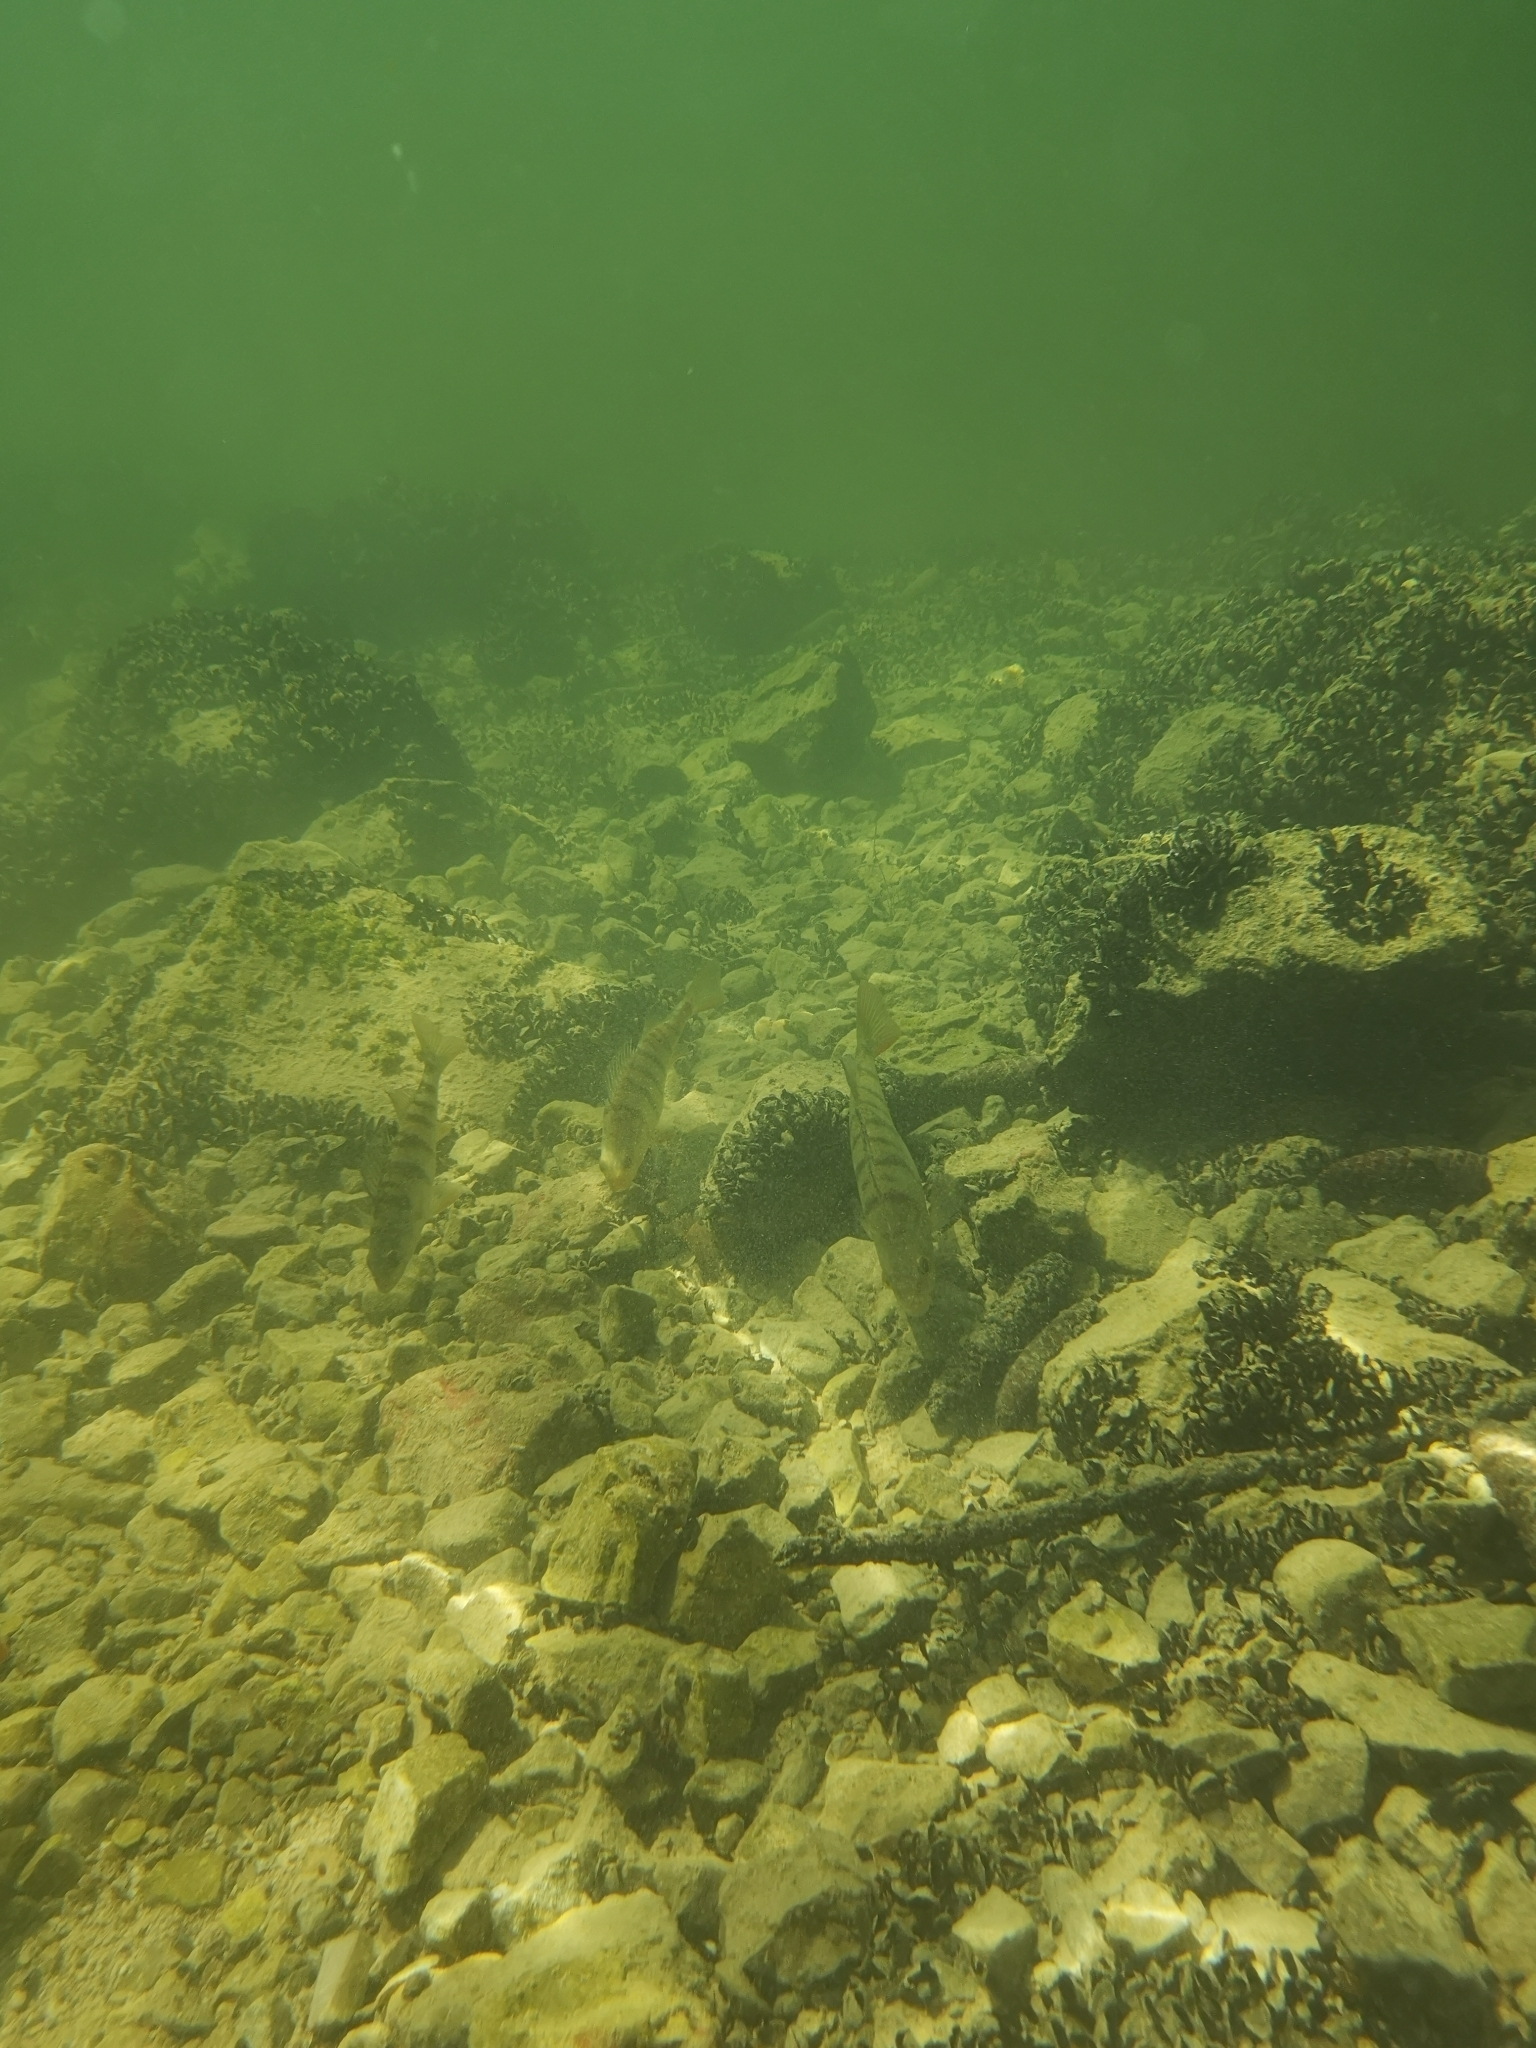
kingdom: Animalia
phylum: Chordata
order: Perciformes
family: Percidae
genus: Perca
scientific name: Perca fluviatilis
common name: Perch
